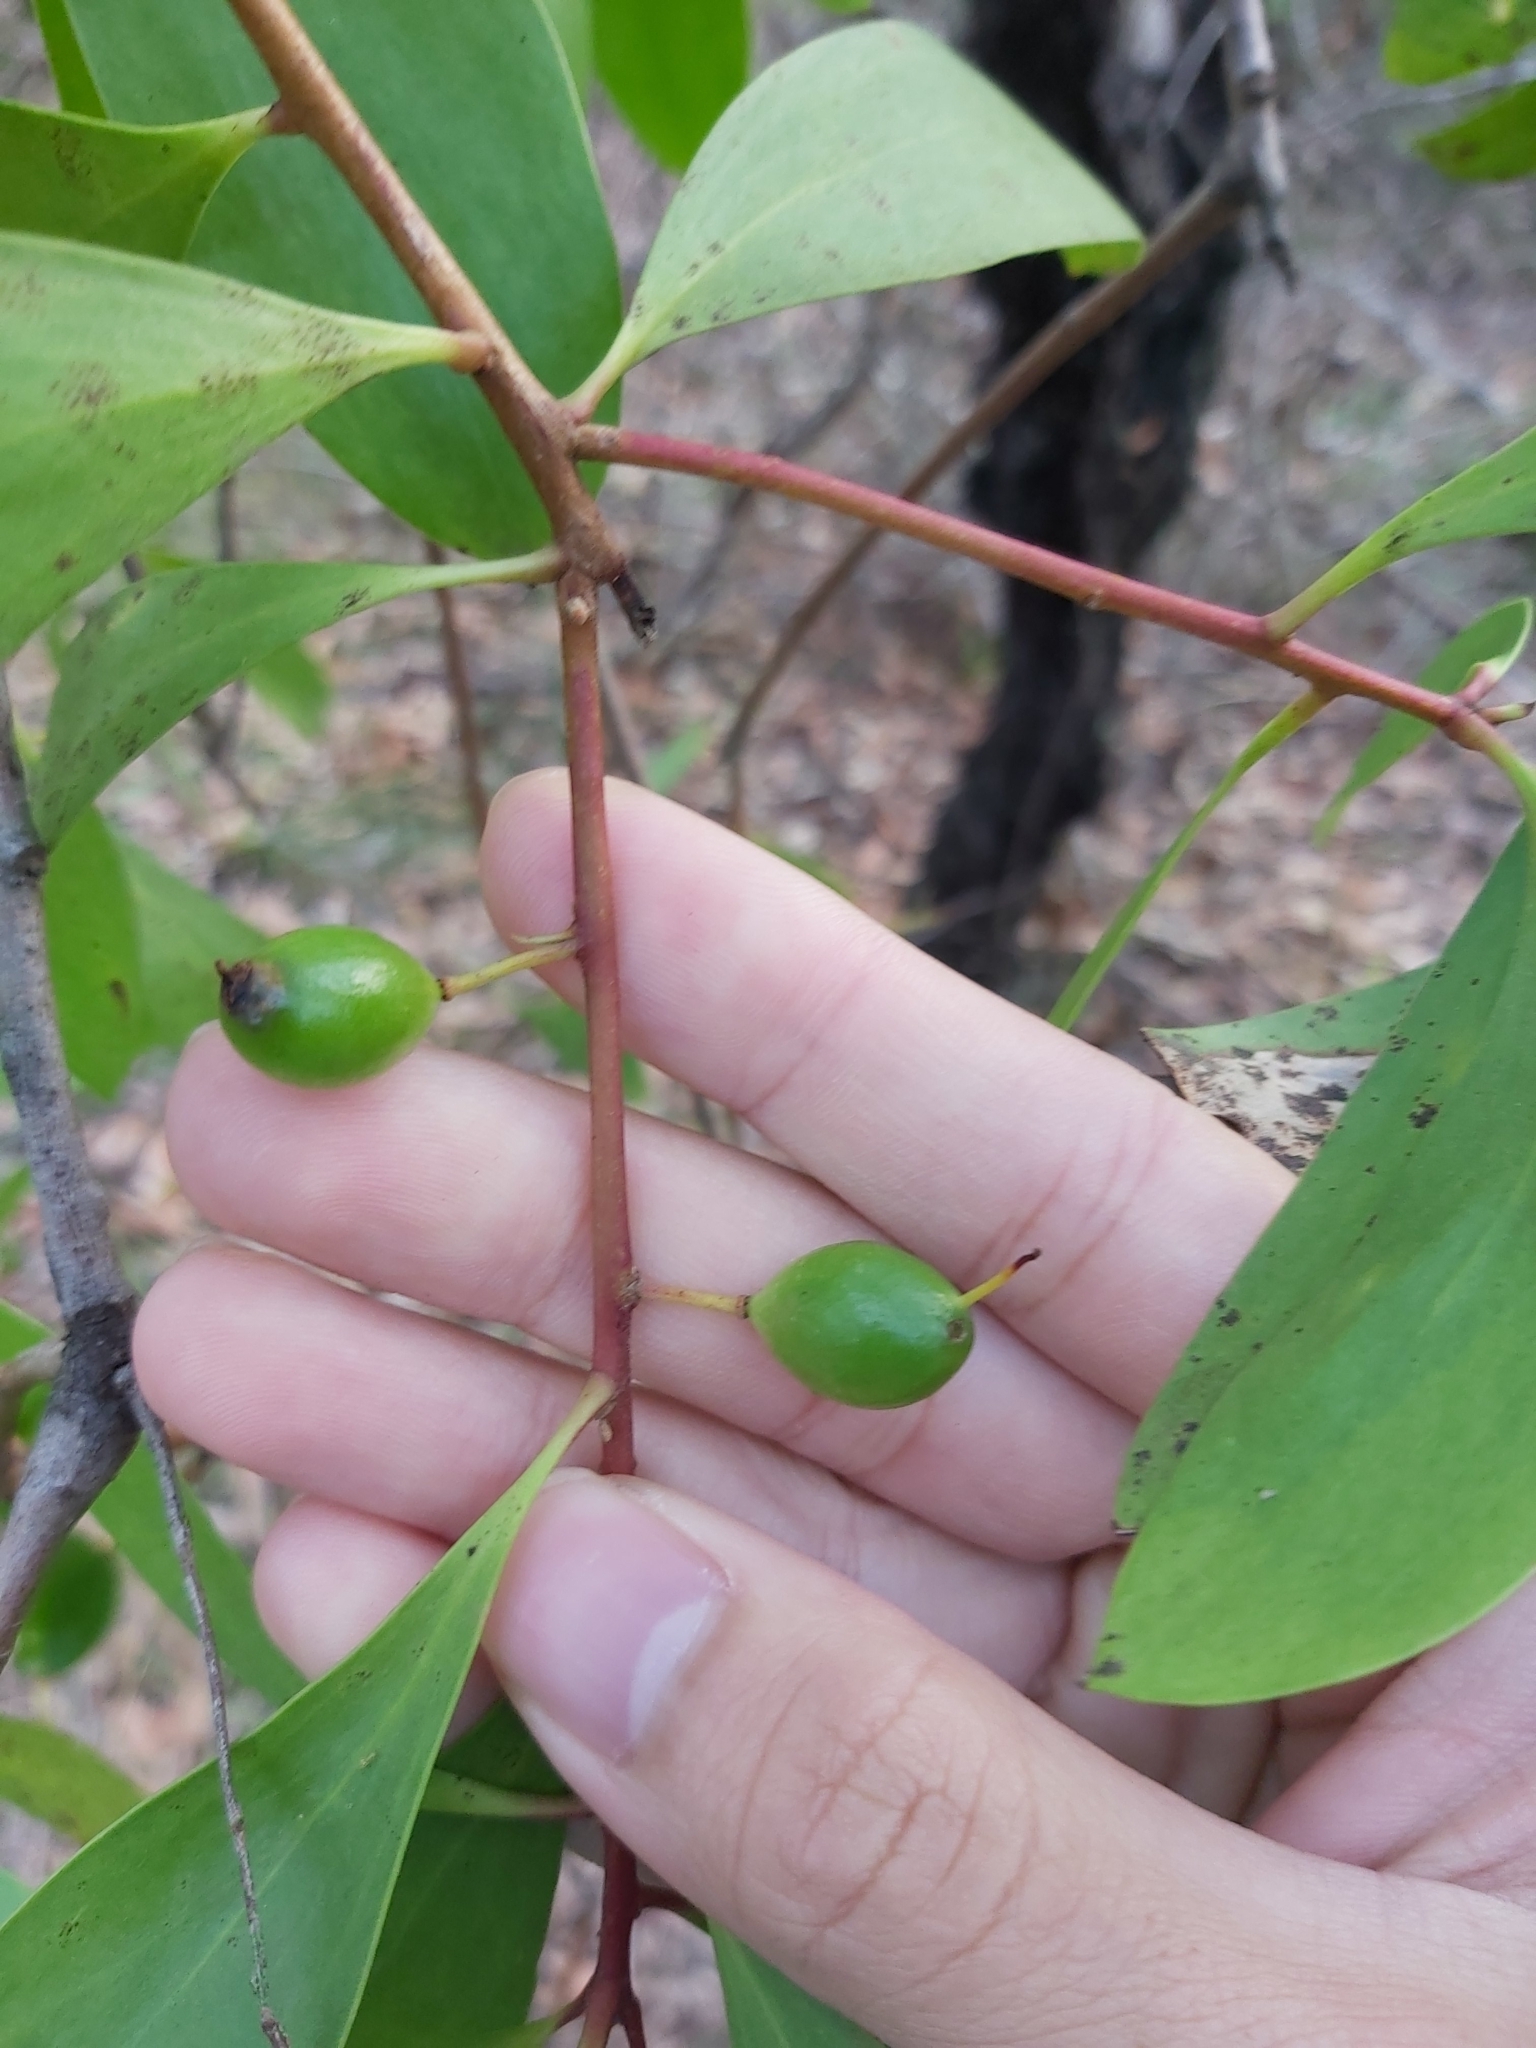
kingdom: Plantae
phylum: Tracheophyta
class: Magnoliopsida
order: Proteales
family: Proteaceae
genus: Persoonia
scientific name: Persoonia levis
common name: Smooth geebung
